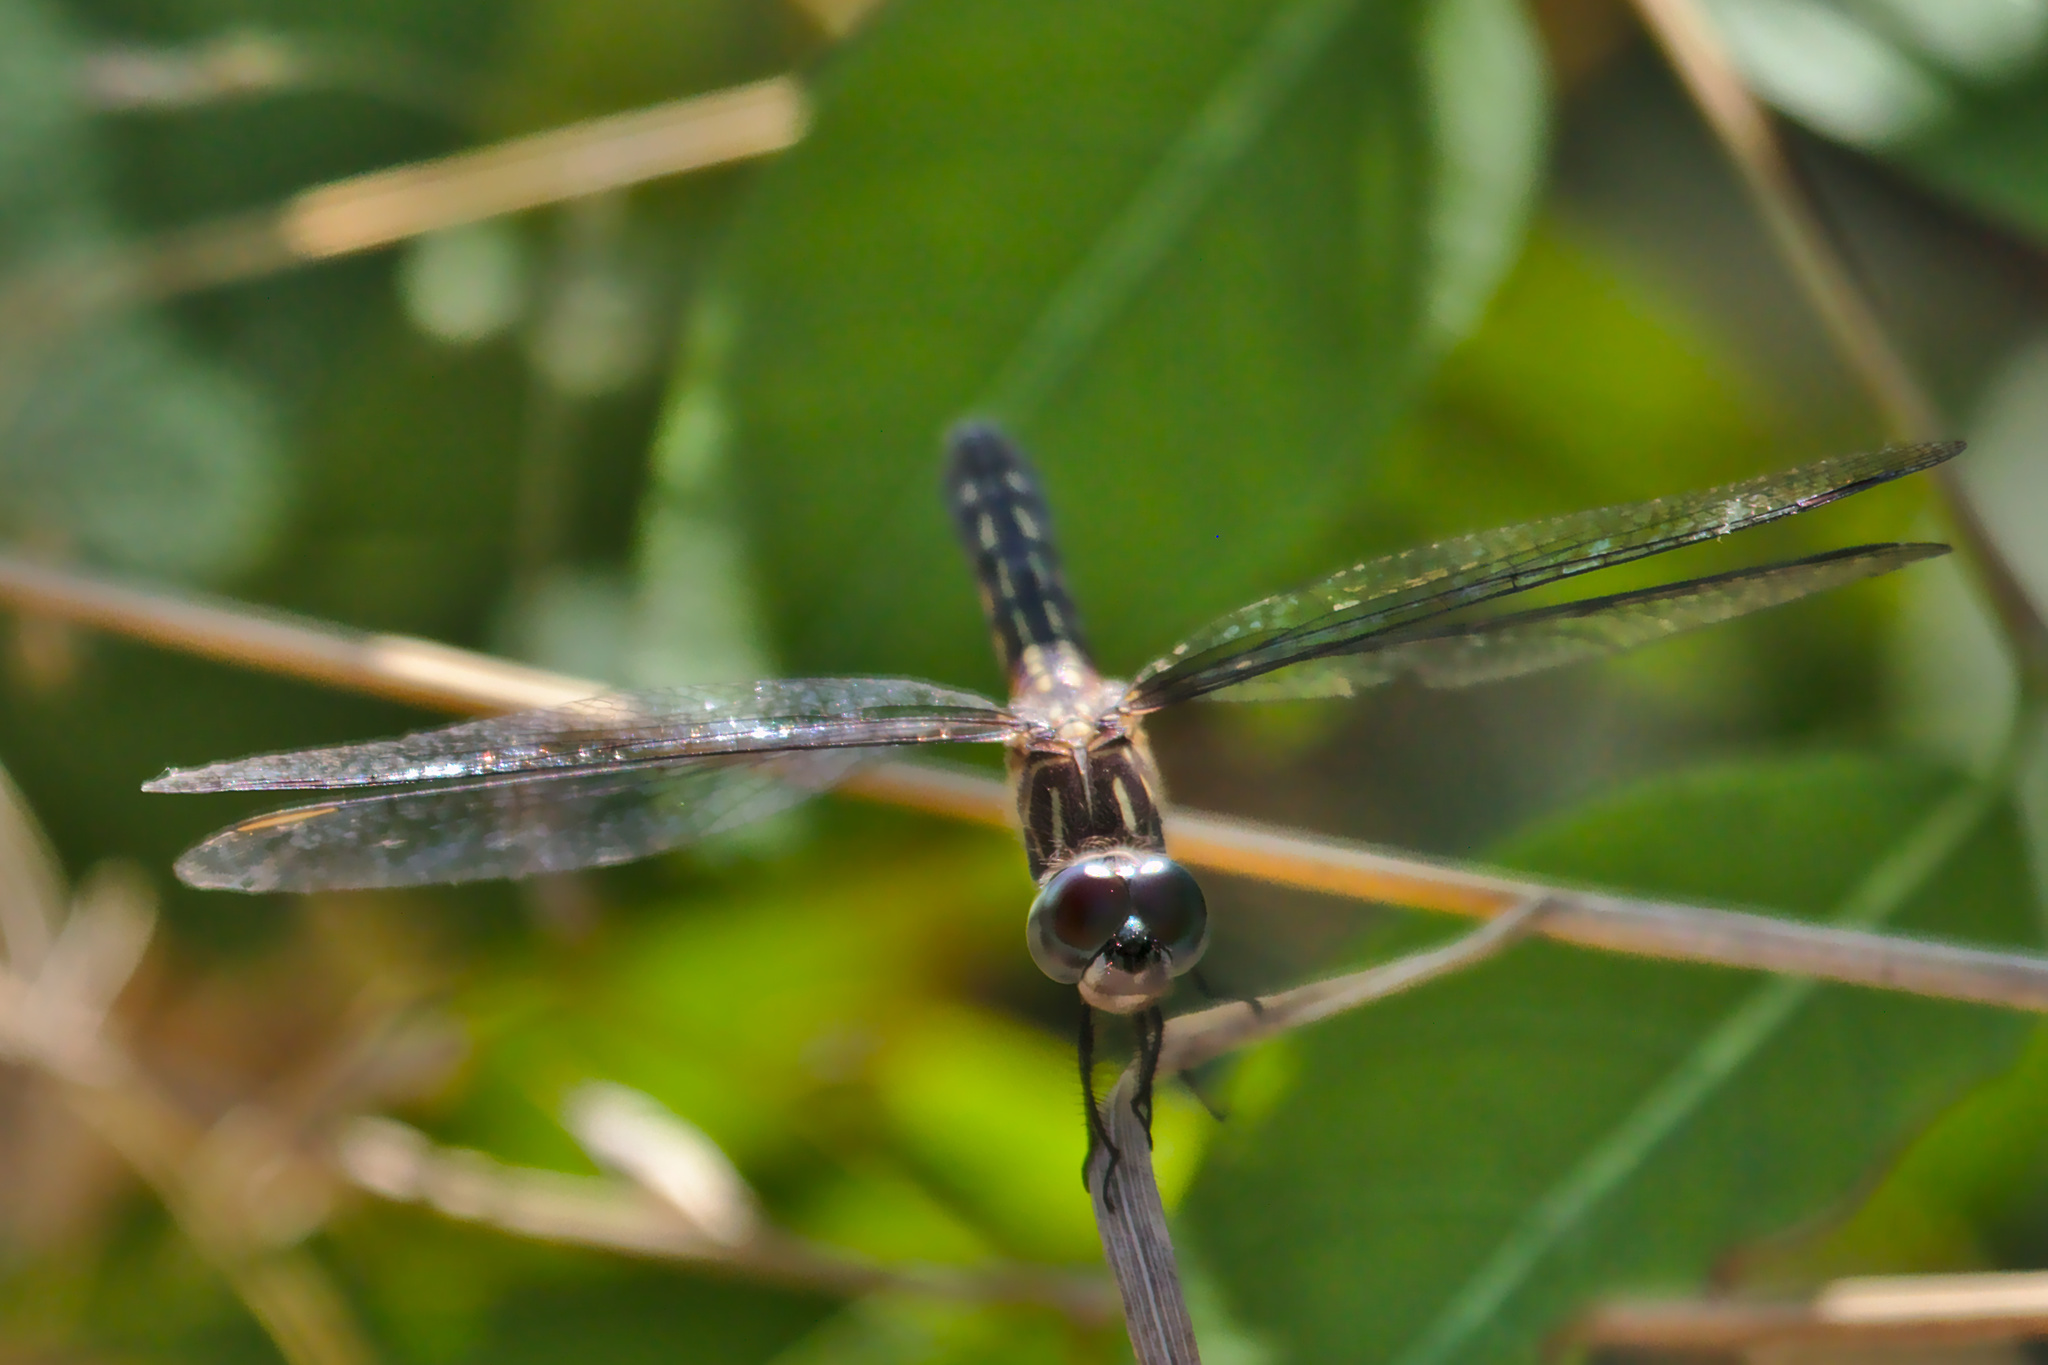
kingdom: Animalia
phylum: Arthropoda
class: Insecta
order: Odonata
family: Libellulidae
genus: Pachydiplax
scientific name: Pachydiplax longipennis
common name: Blue dasher
